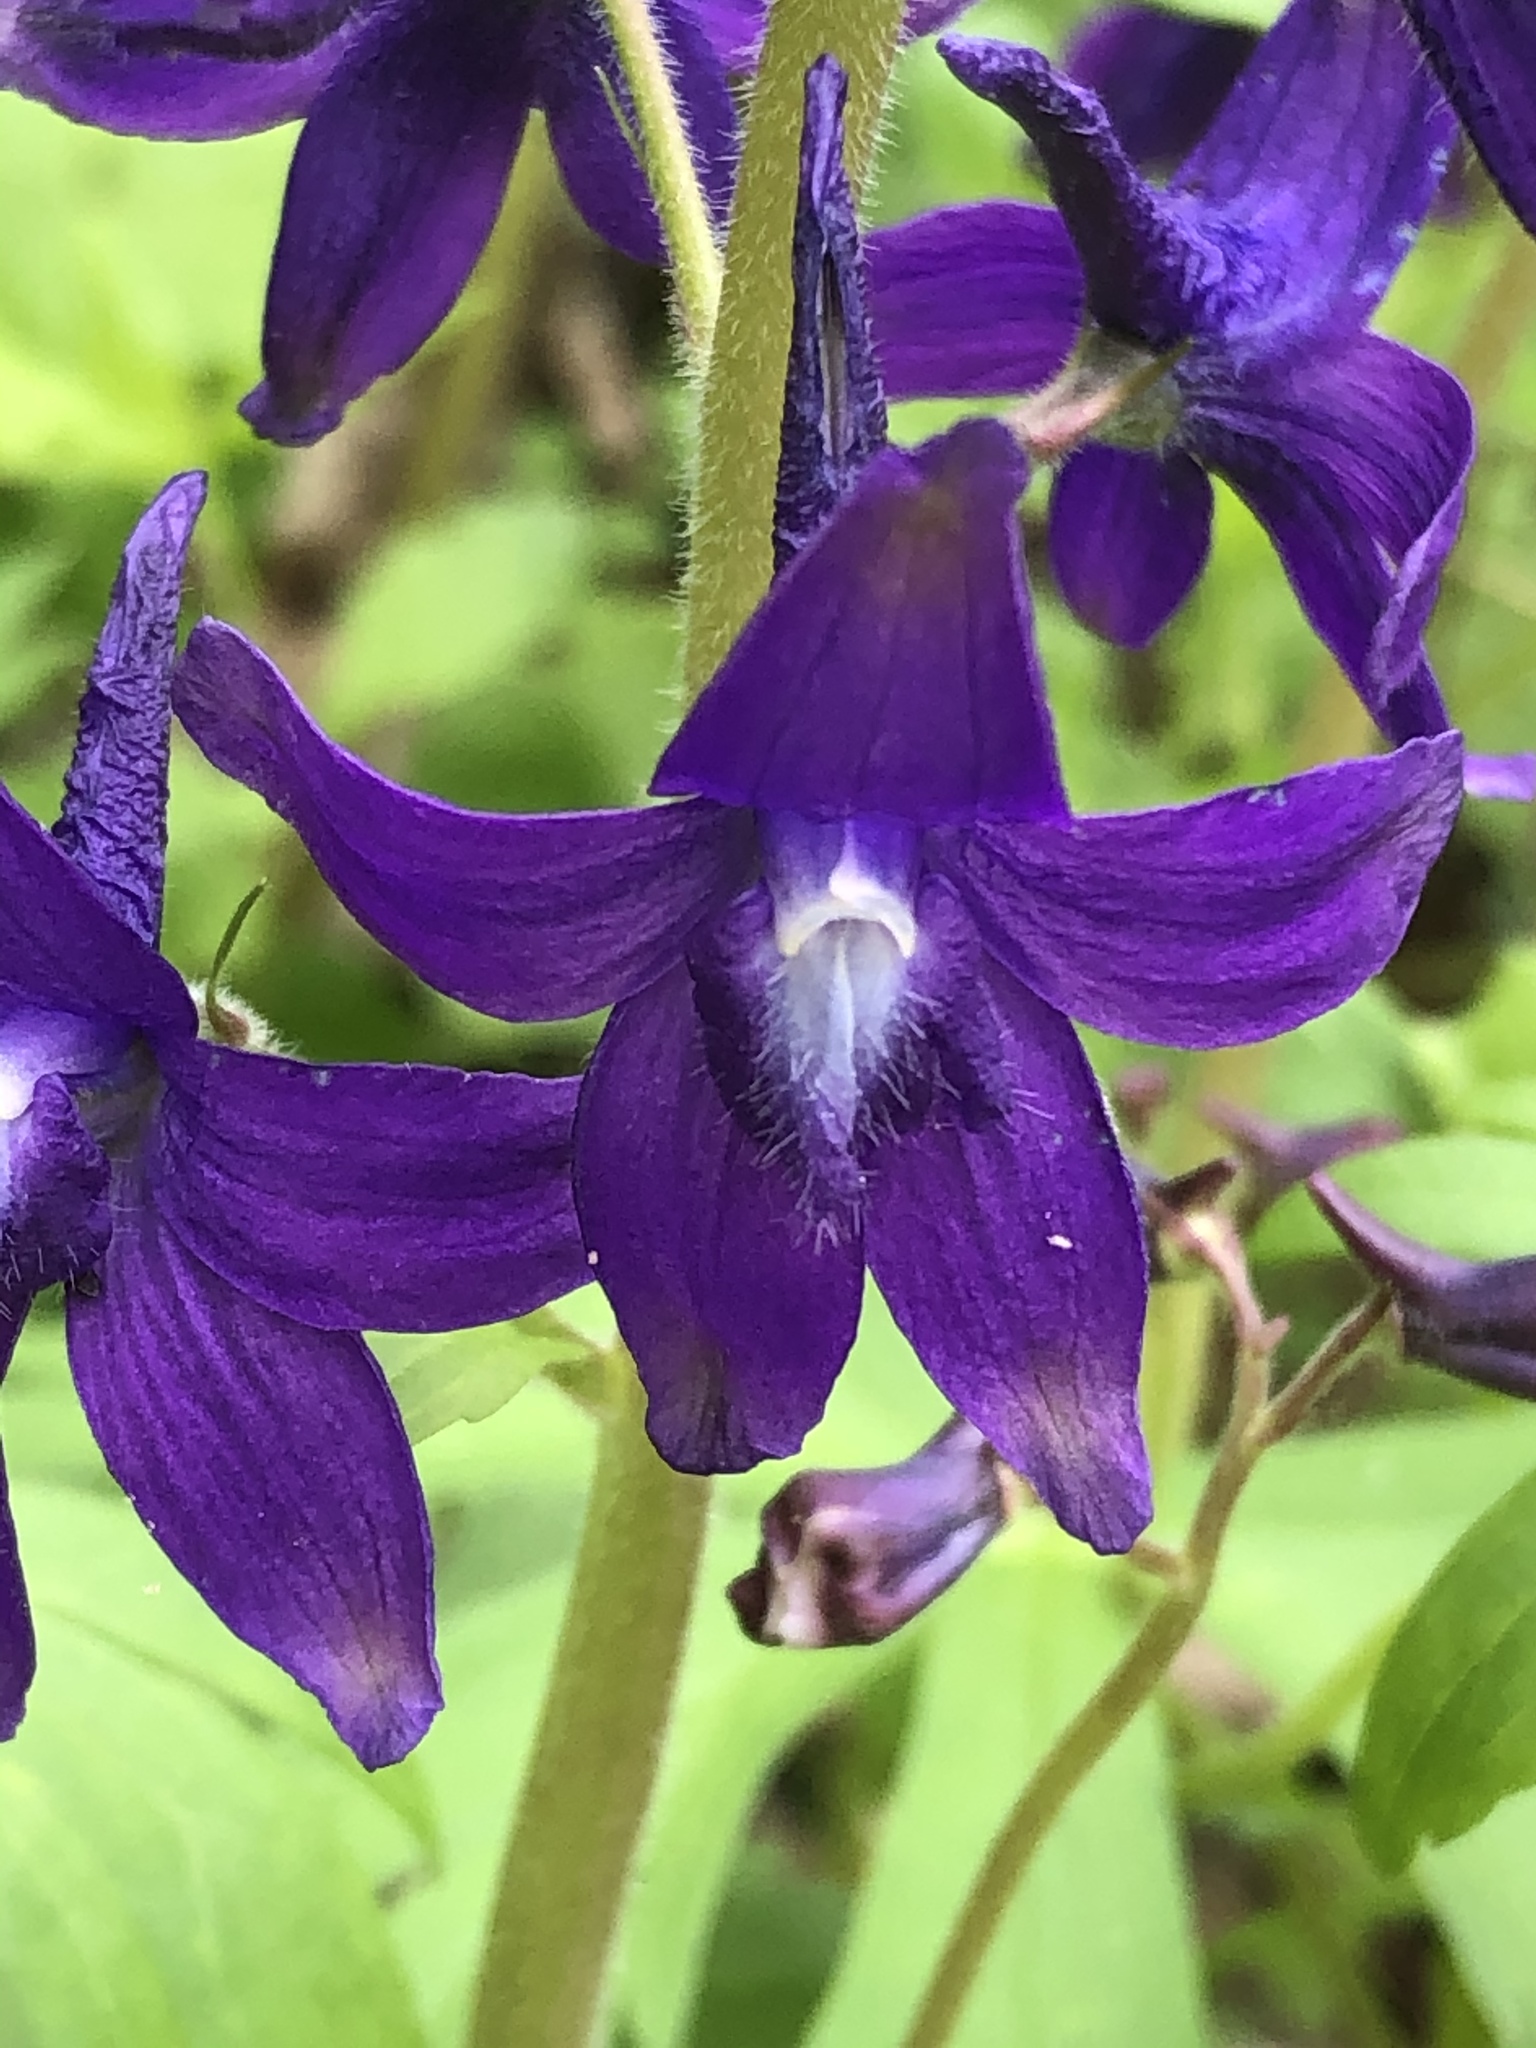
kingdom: Plantae
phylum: Tracheophyta
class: Magnoliopsida
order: Ranunculales
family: Ranunculaceae
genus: Delphinium
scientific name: Delphinium tricorne
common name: Dwarf larkspur
